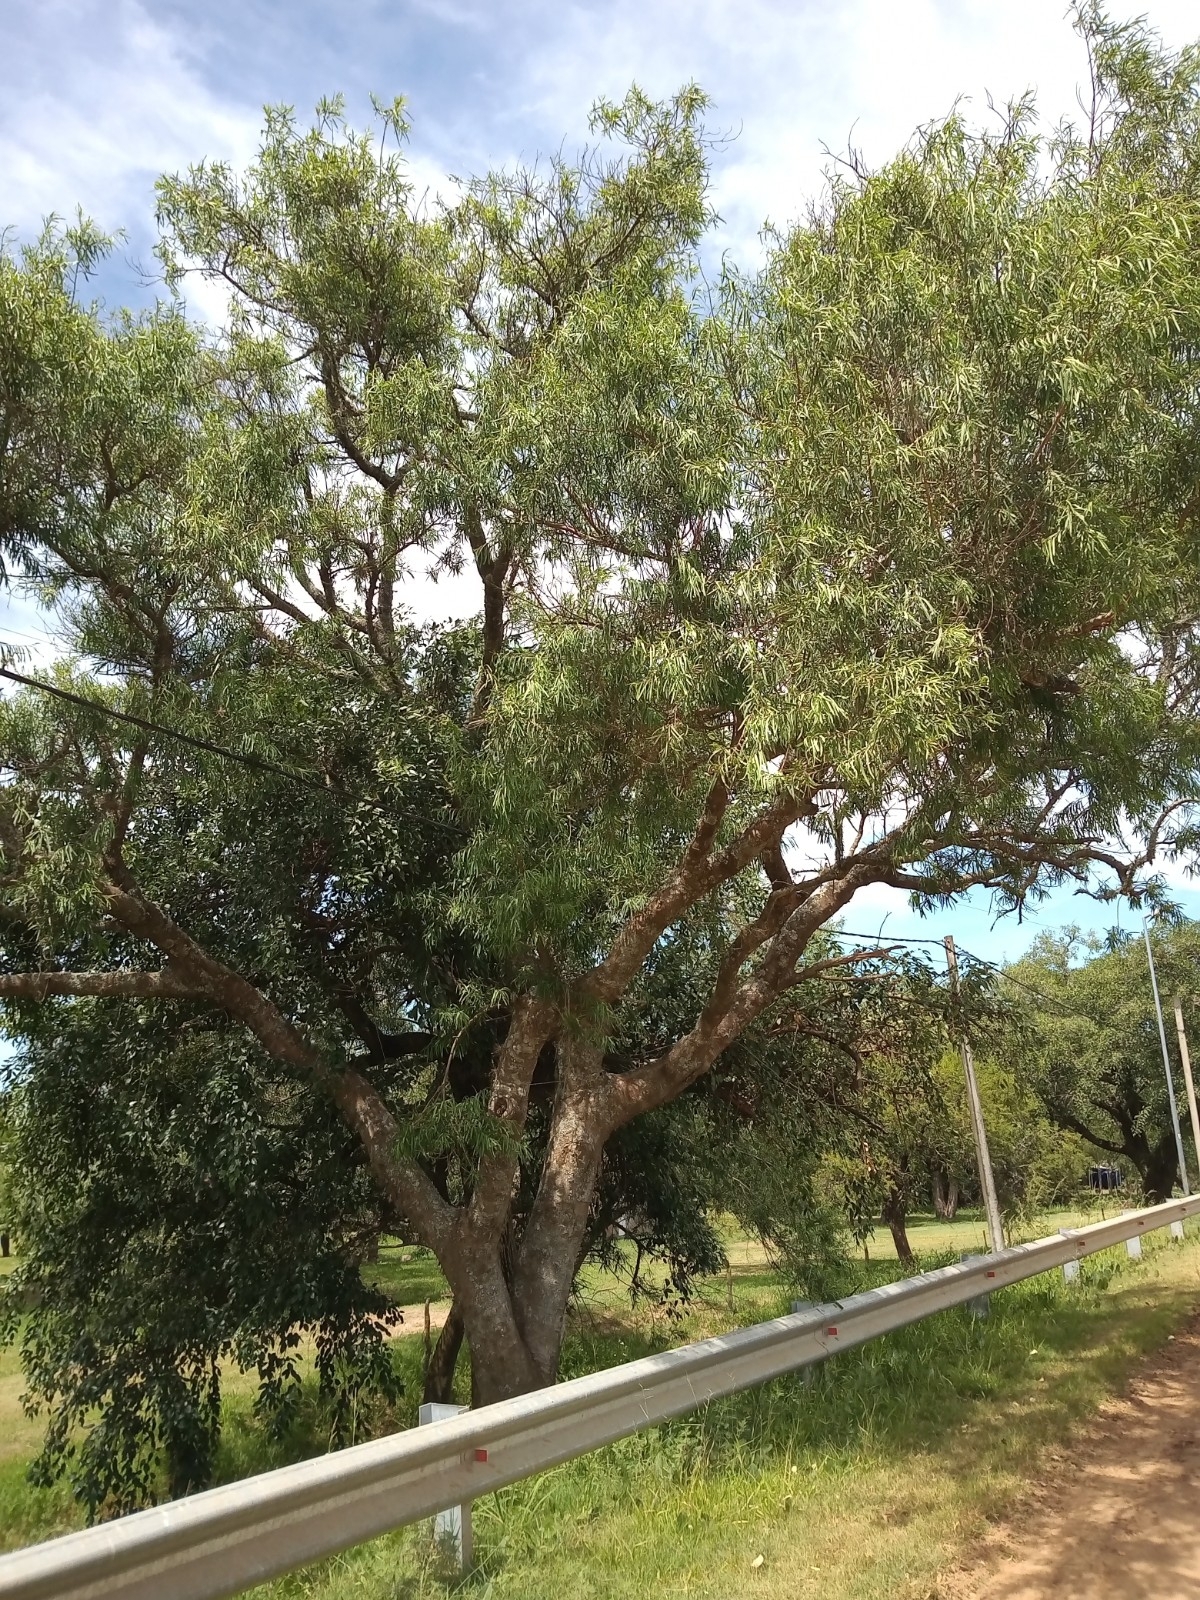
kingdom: Plantae
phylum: Tracheophyta
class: Magnoliopsida
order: Malpighiales
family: Euphorbiaceae
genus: Sapium
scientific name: Sapium haematospermum
